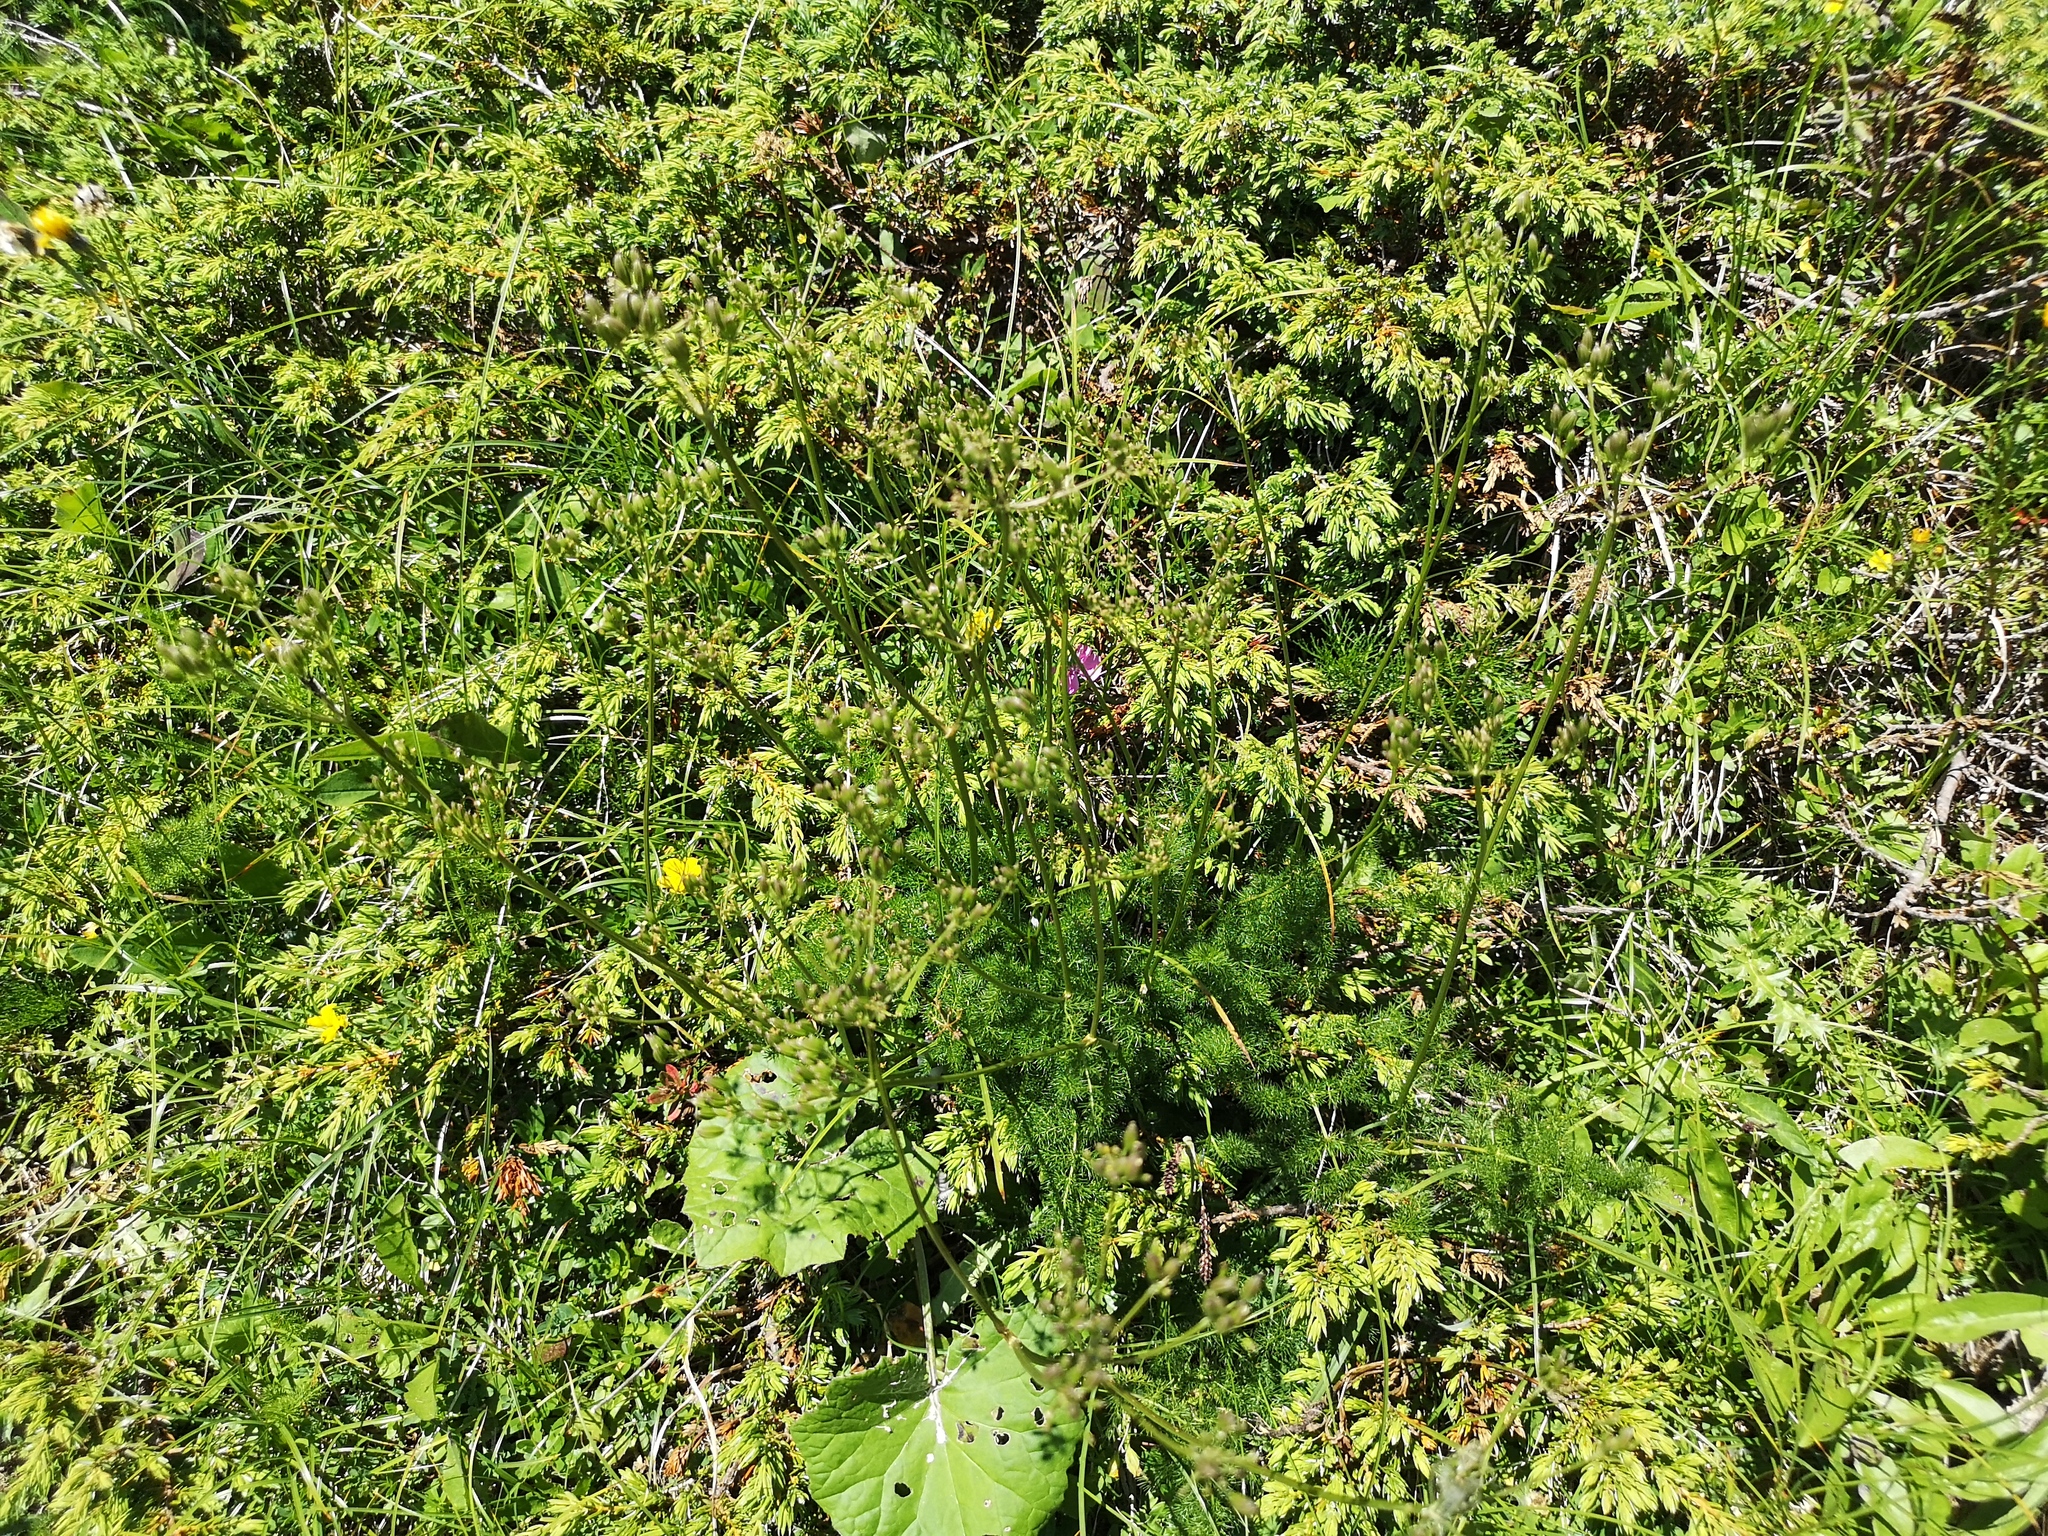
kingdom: Plantae
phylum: Tracheophyta
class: Magnoliopsida
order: Apiales
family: Apiaceae
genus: Meum
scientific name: Meum athamanticum
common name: Spignel
